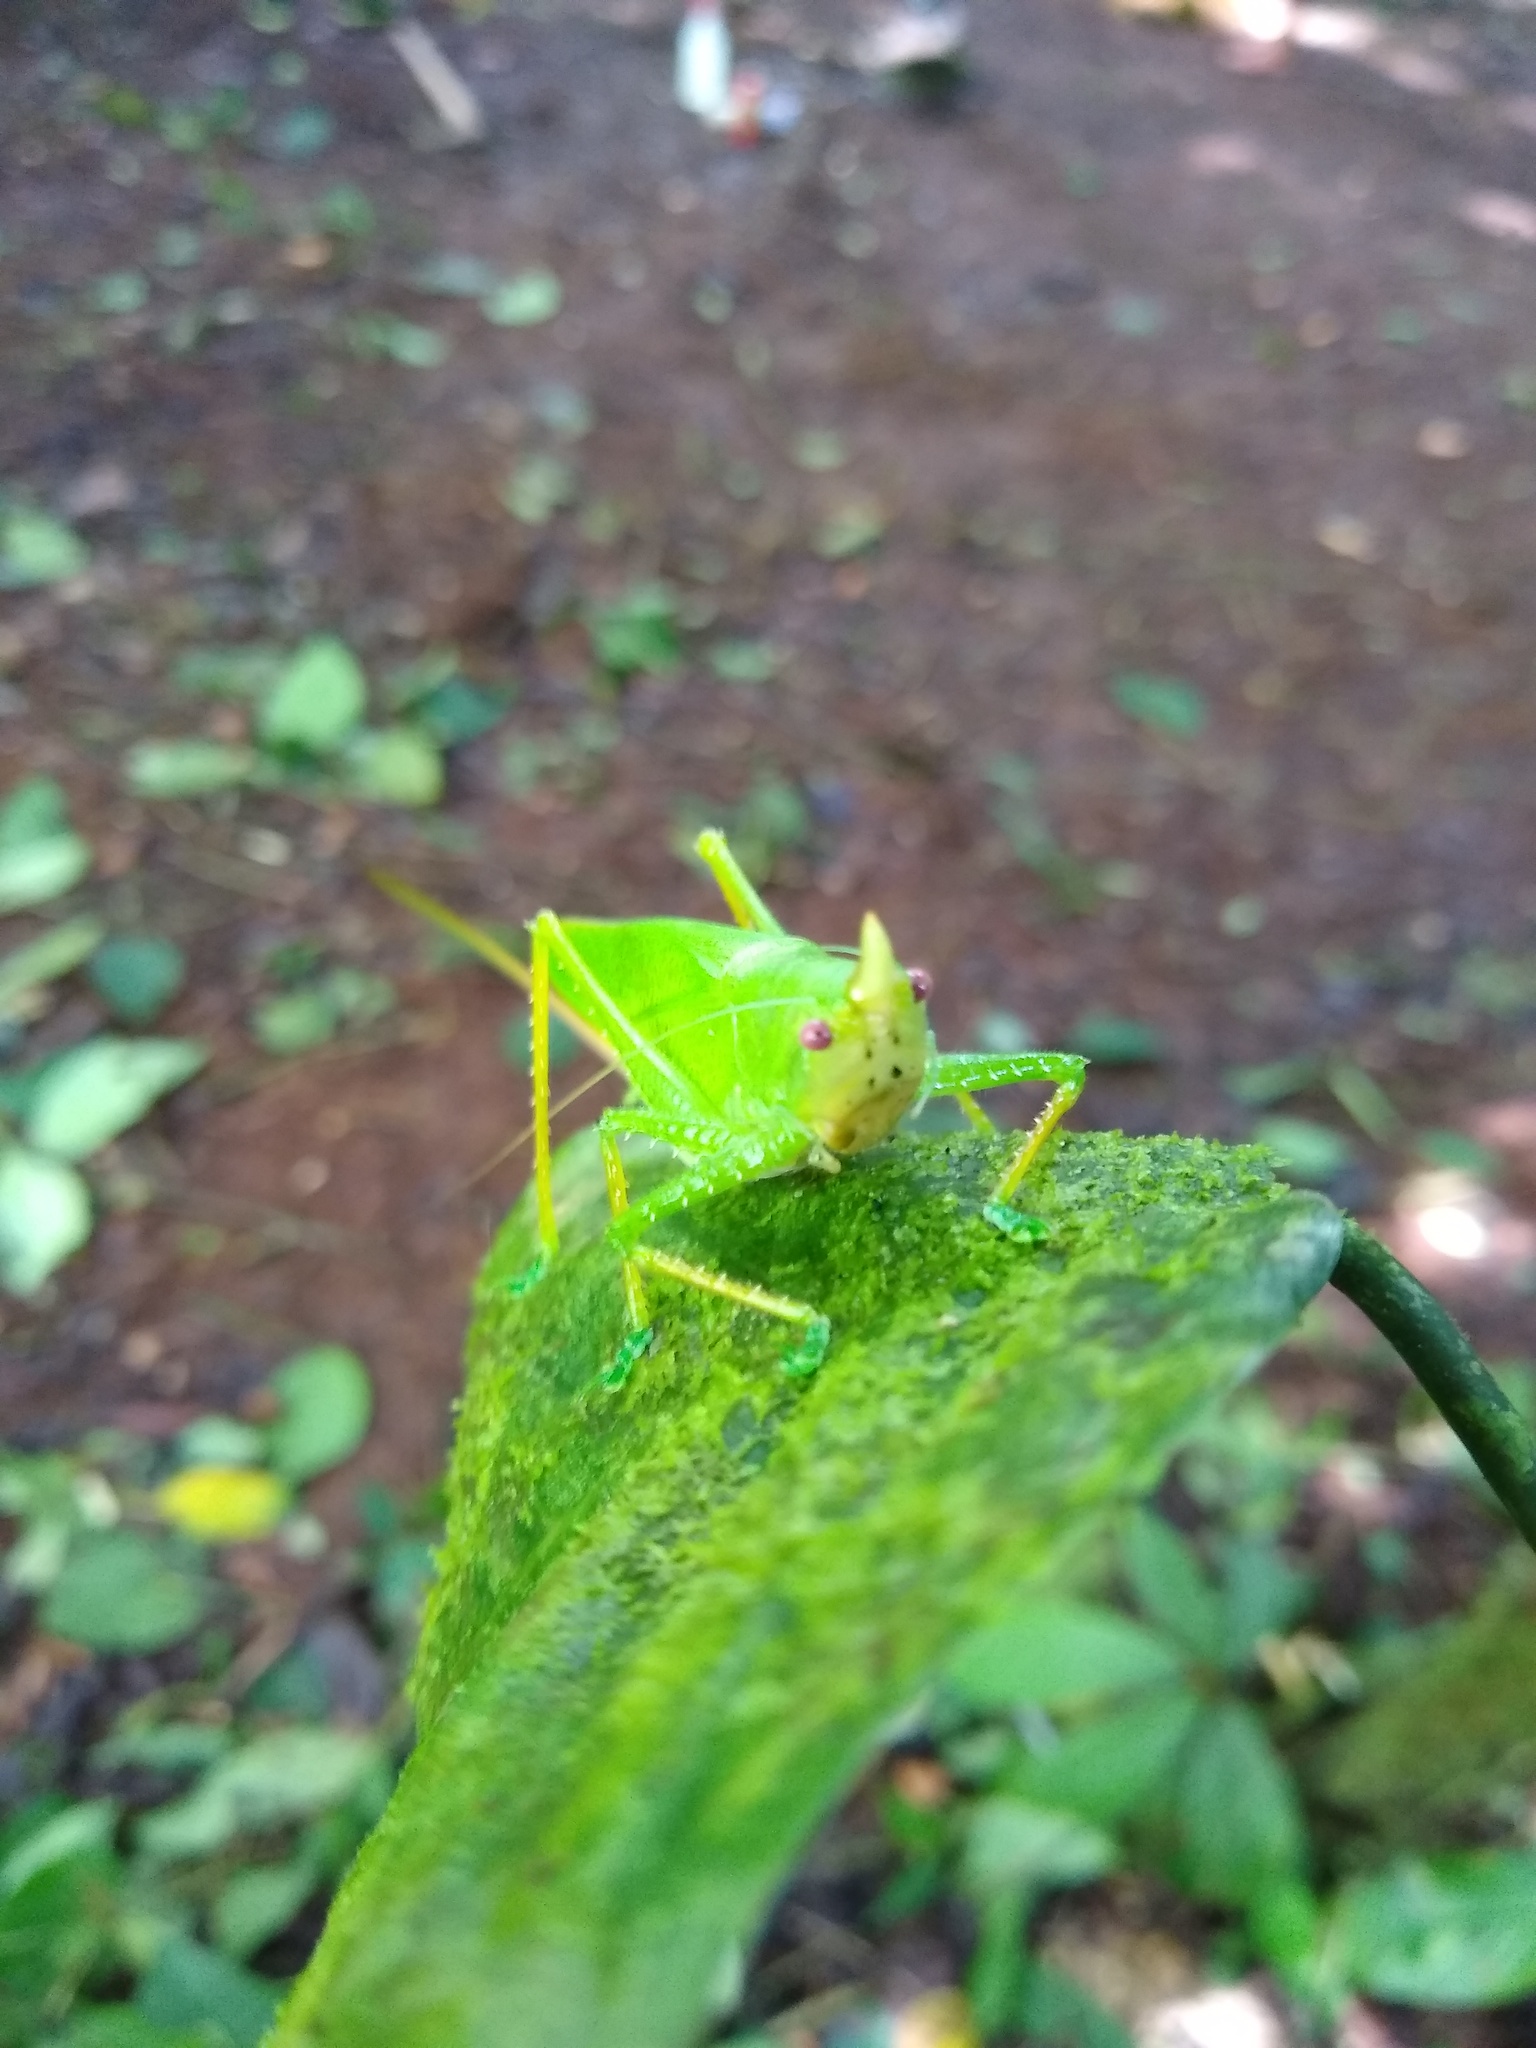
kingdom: Animalia
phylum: Arthropoda
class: Insecta
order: Orthoptera
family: Tettigoniidae
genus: Copiphora
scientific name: Copiphora cultricornis
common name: Yellow-faced spear bearer
